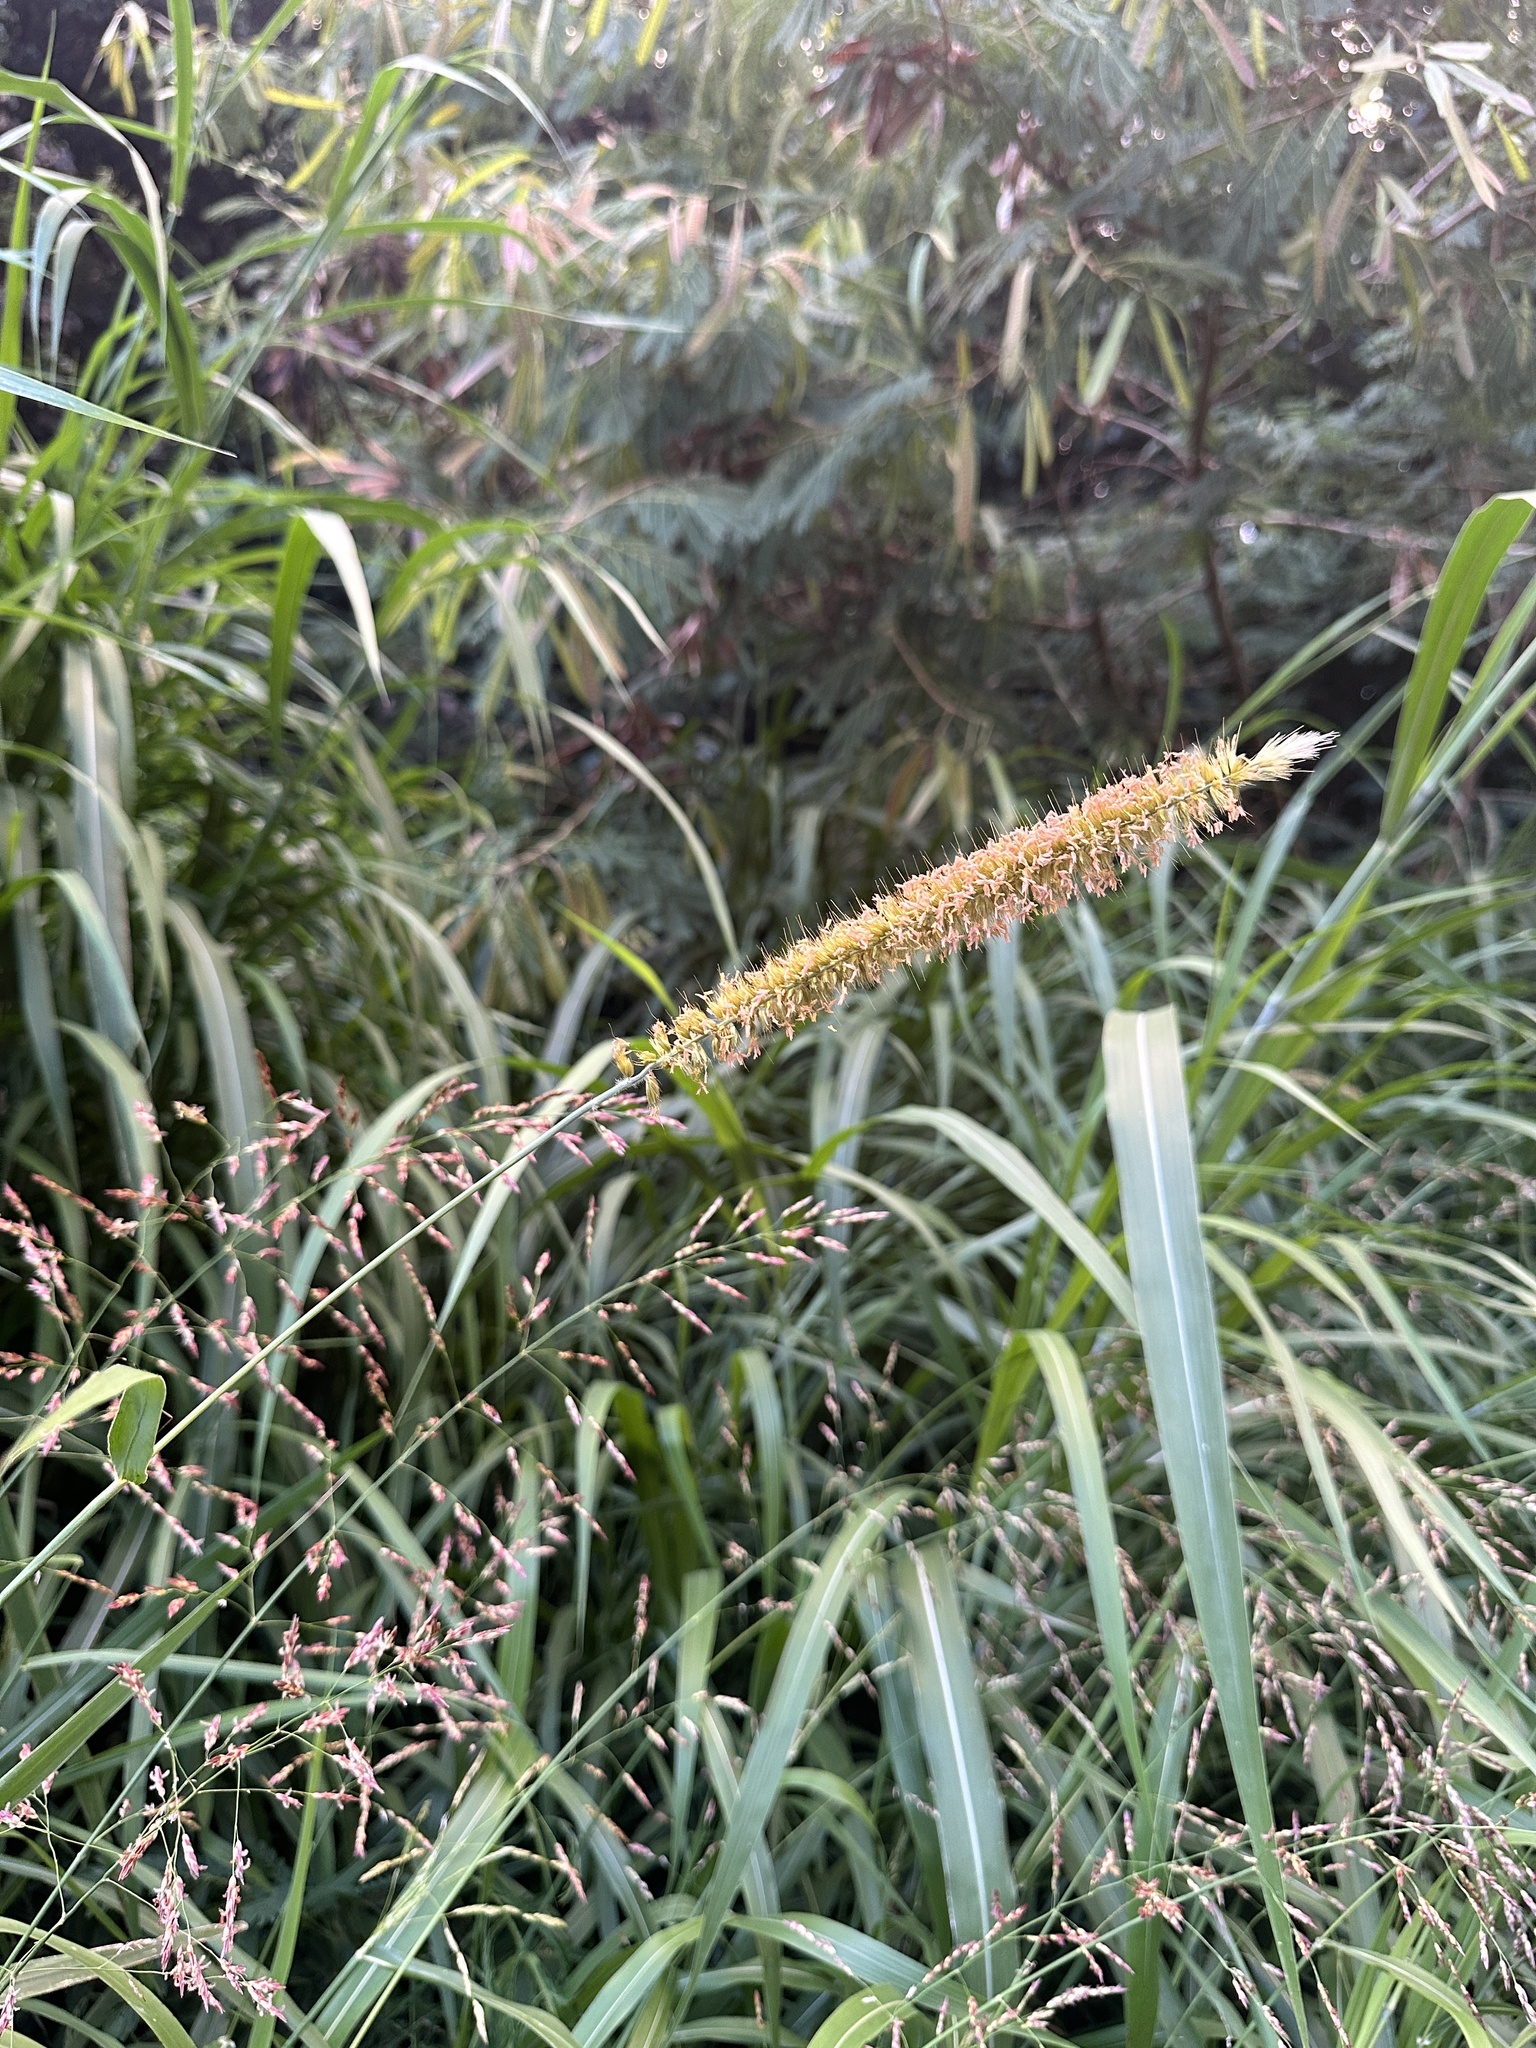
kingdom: Plantae
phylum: Tracheophyta
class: Liliopsida
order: Poales
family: Poaceae
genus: Cenchrus
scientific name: Cenchrus purpureus
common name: Elephant grass
